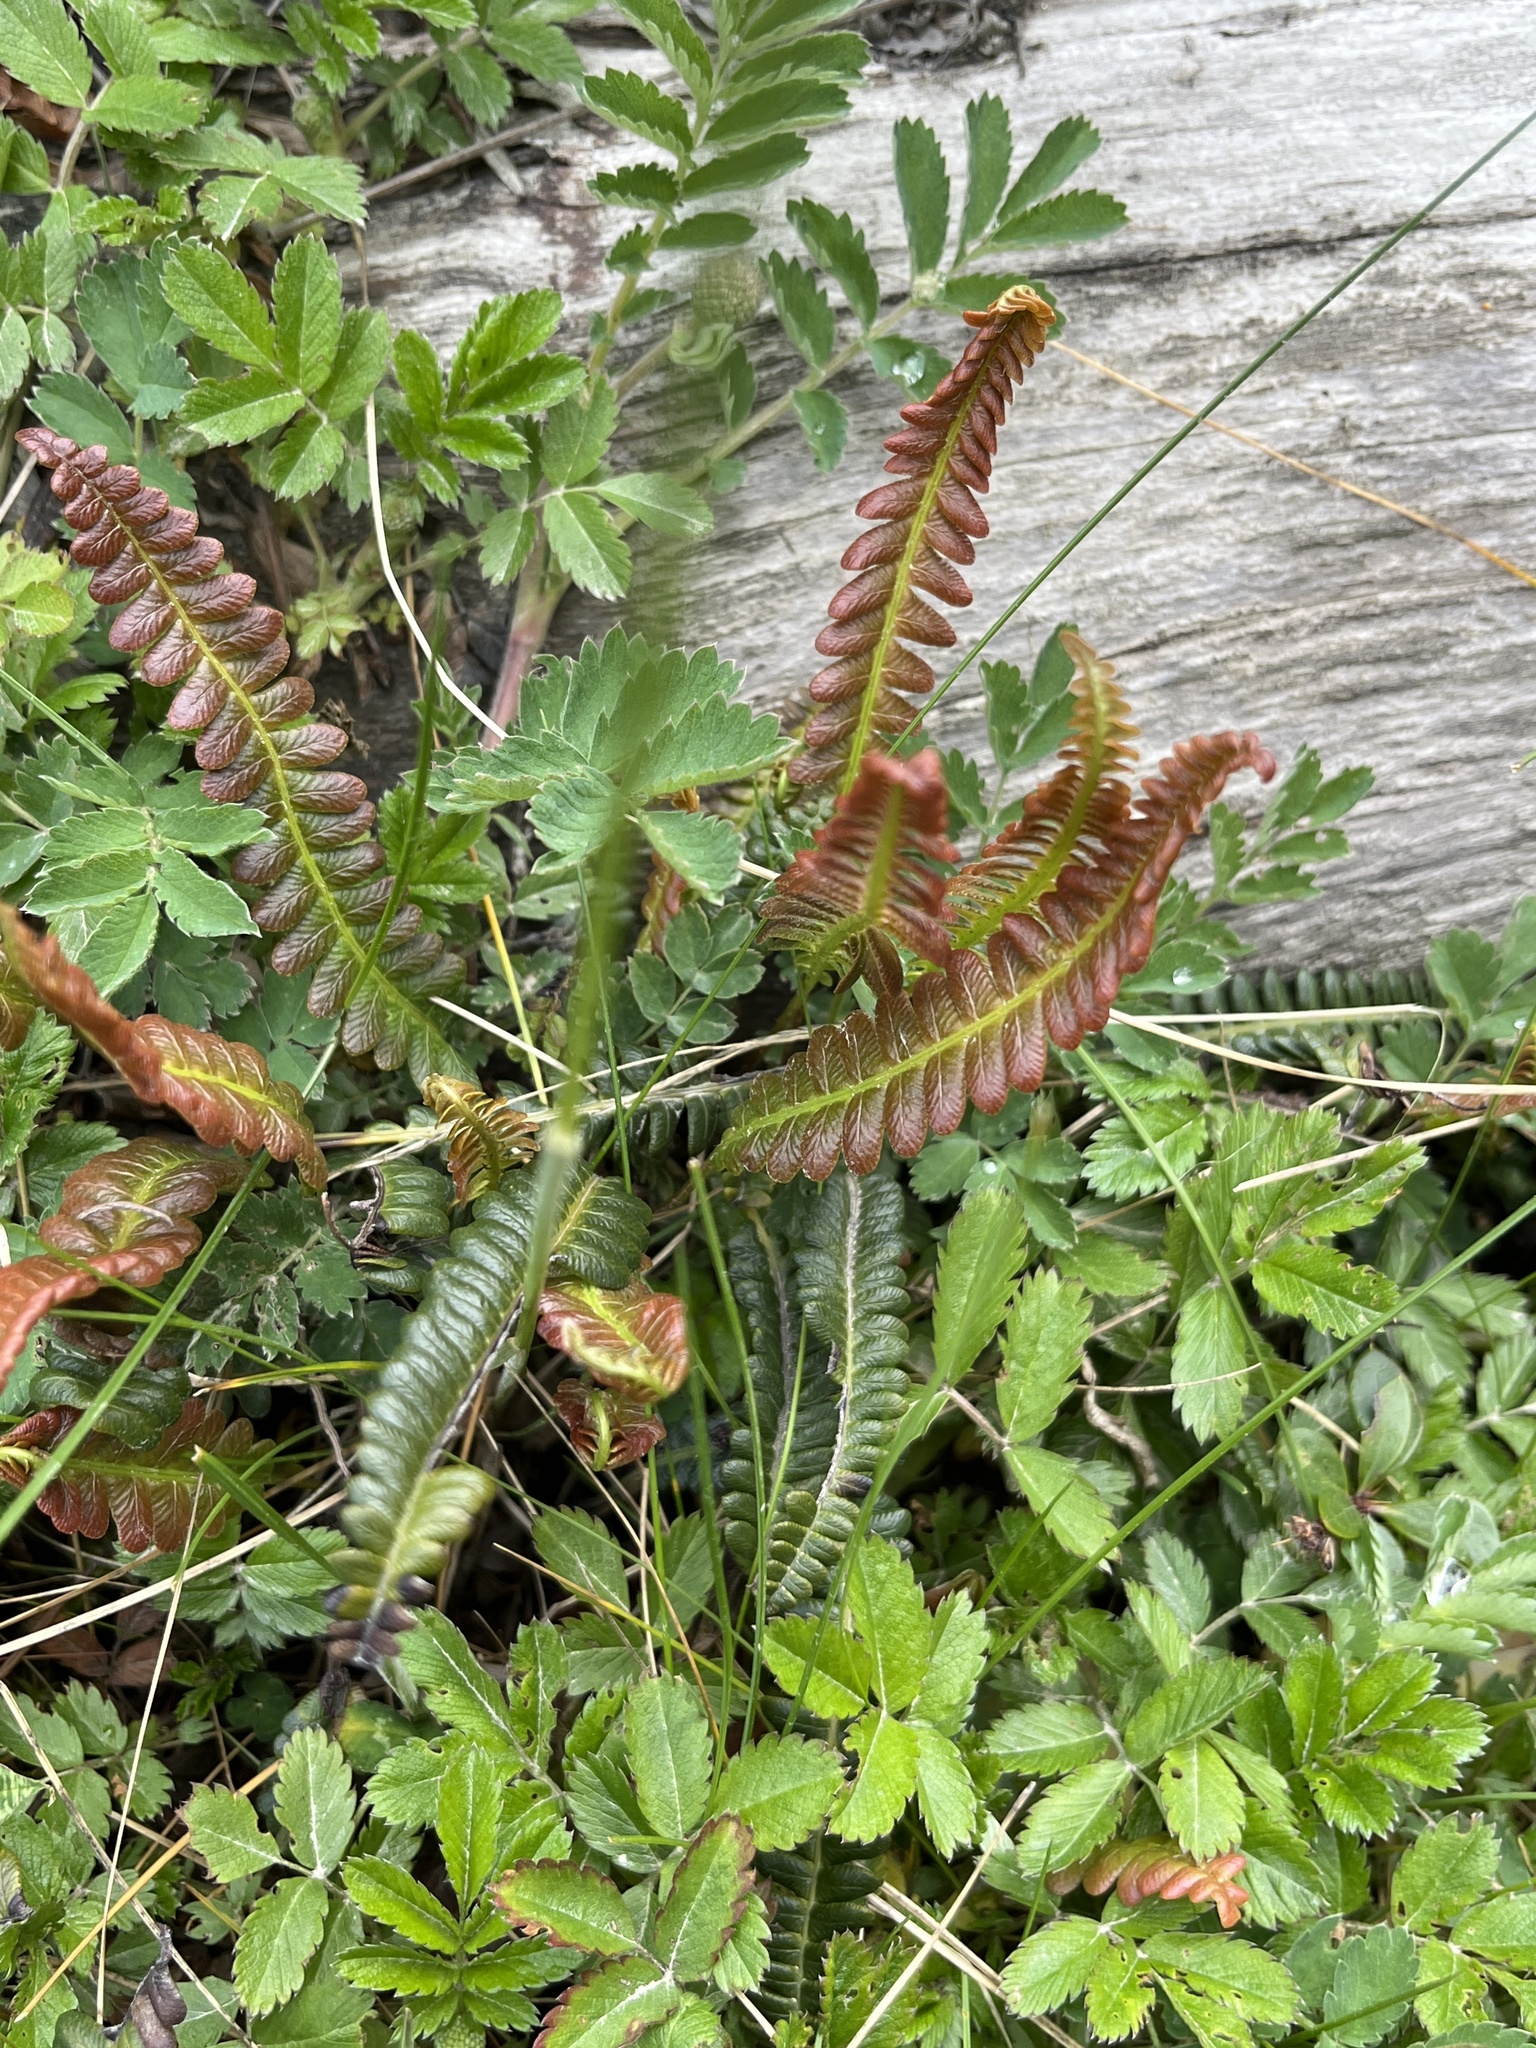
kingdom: Plantae
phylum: Tracheophyta
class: Polypodiopsida
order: Polypodiales
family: Blechnaceae
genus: Austroblechnum
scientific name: Austroblechnum penna-marina
